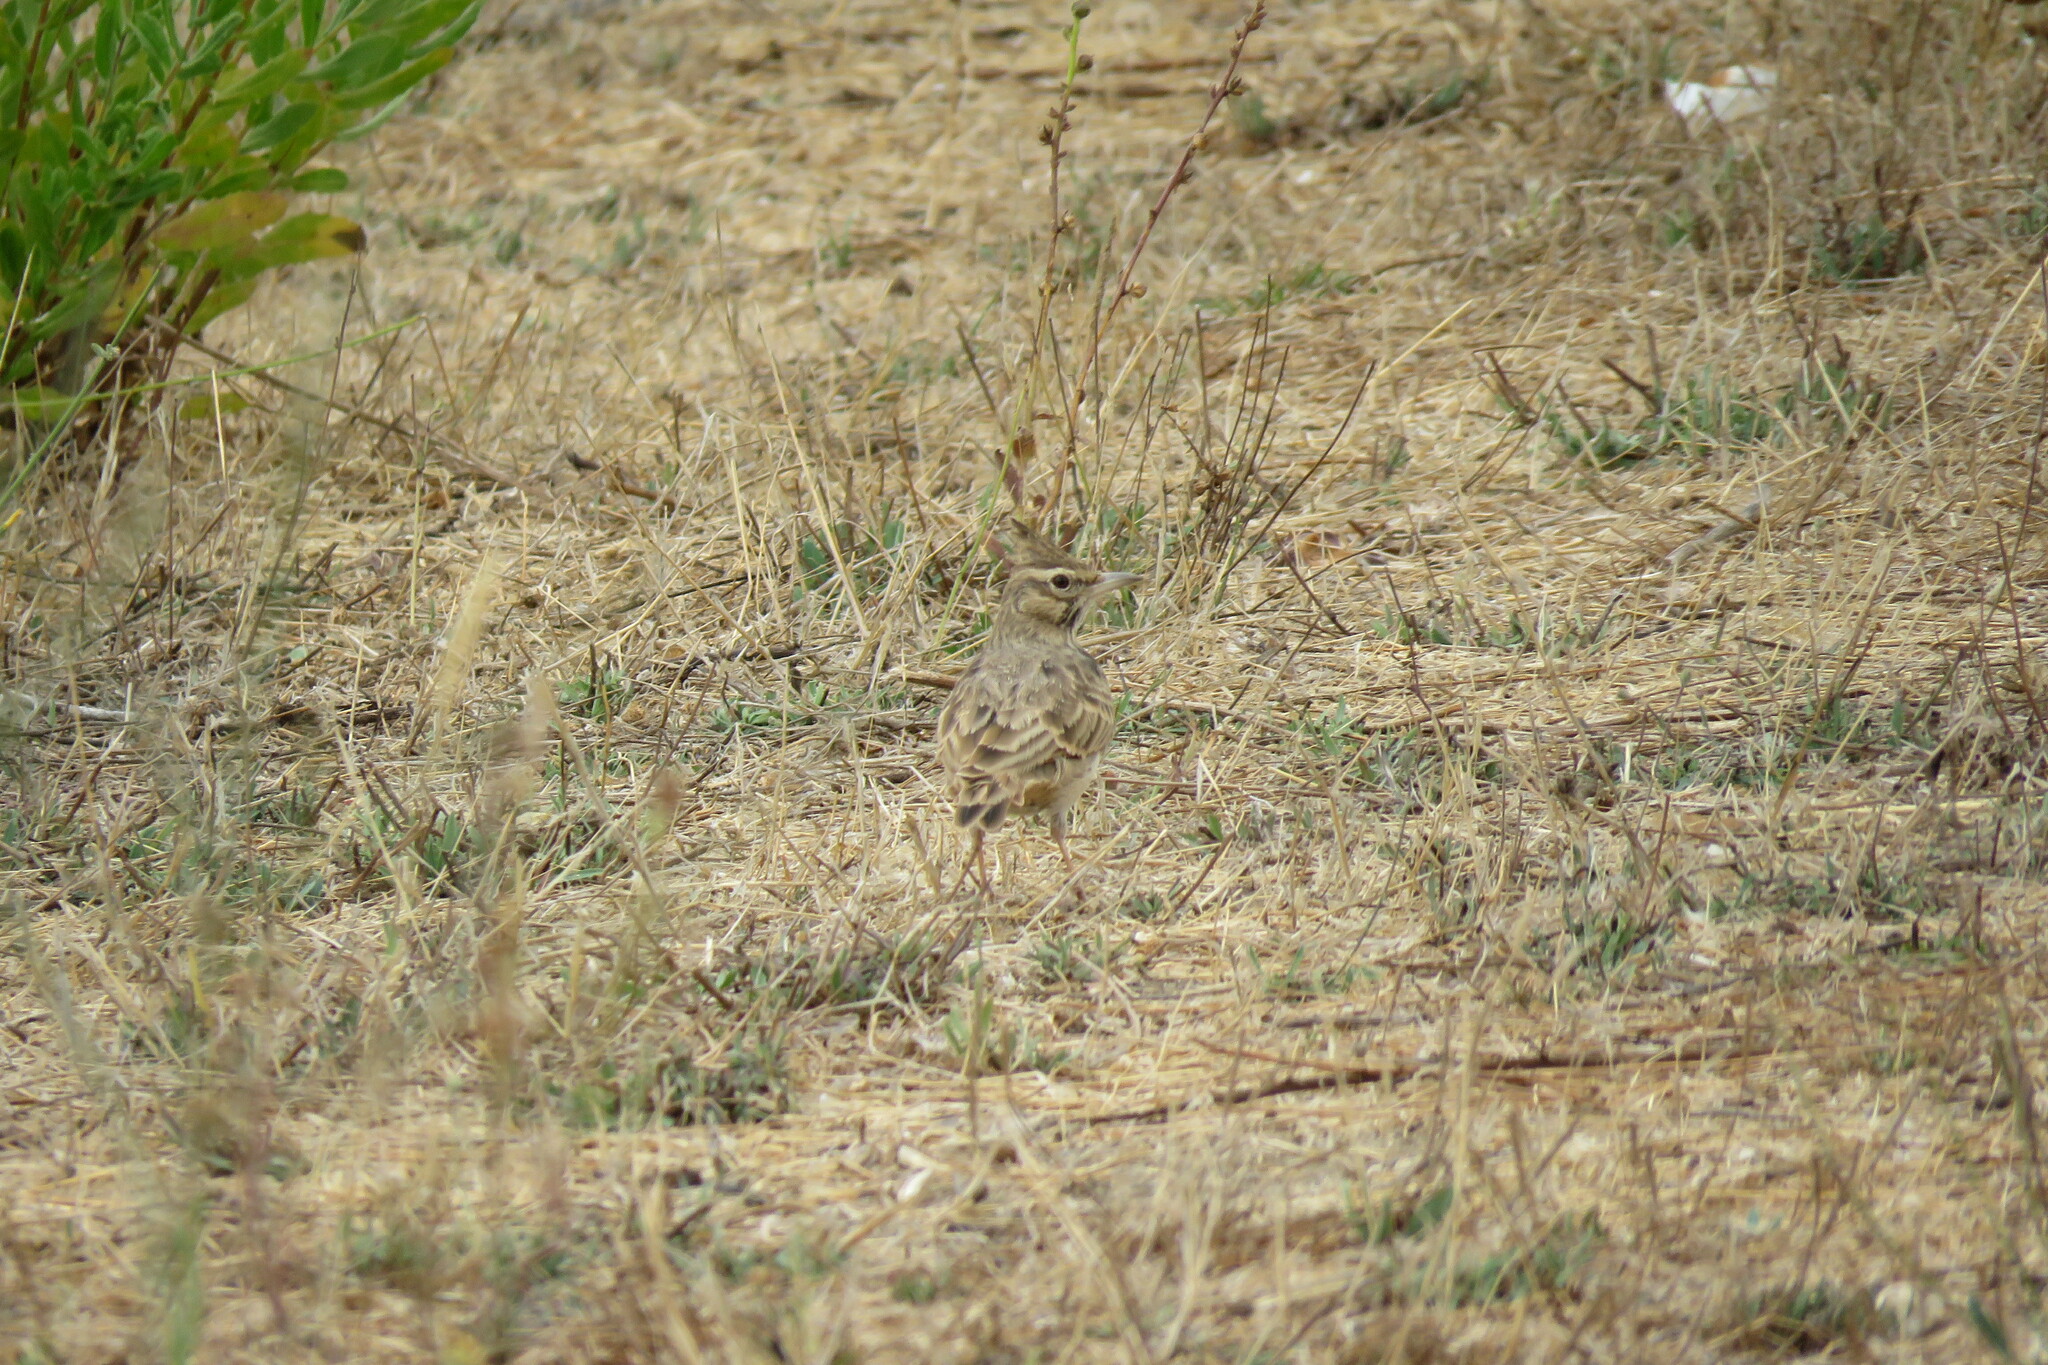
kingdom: Animalia
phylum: Chordata
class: Aves
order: Passeriformes
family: Alaudidae
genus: Galerida
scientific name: Galerida cristata
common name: Crested lark
